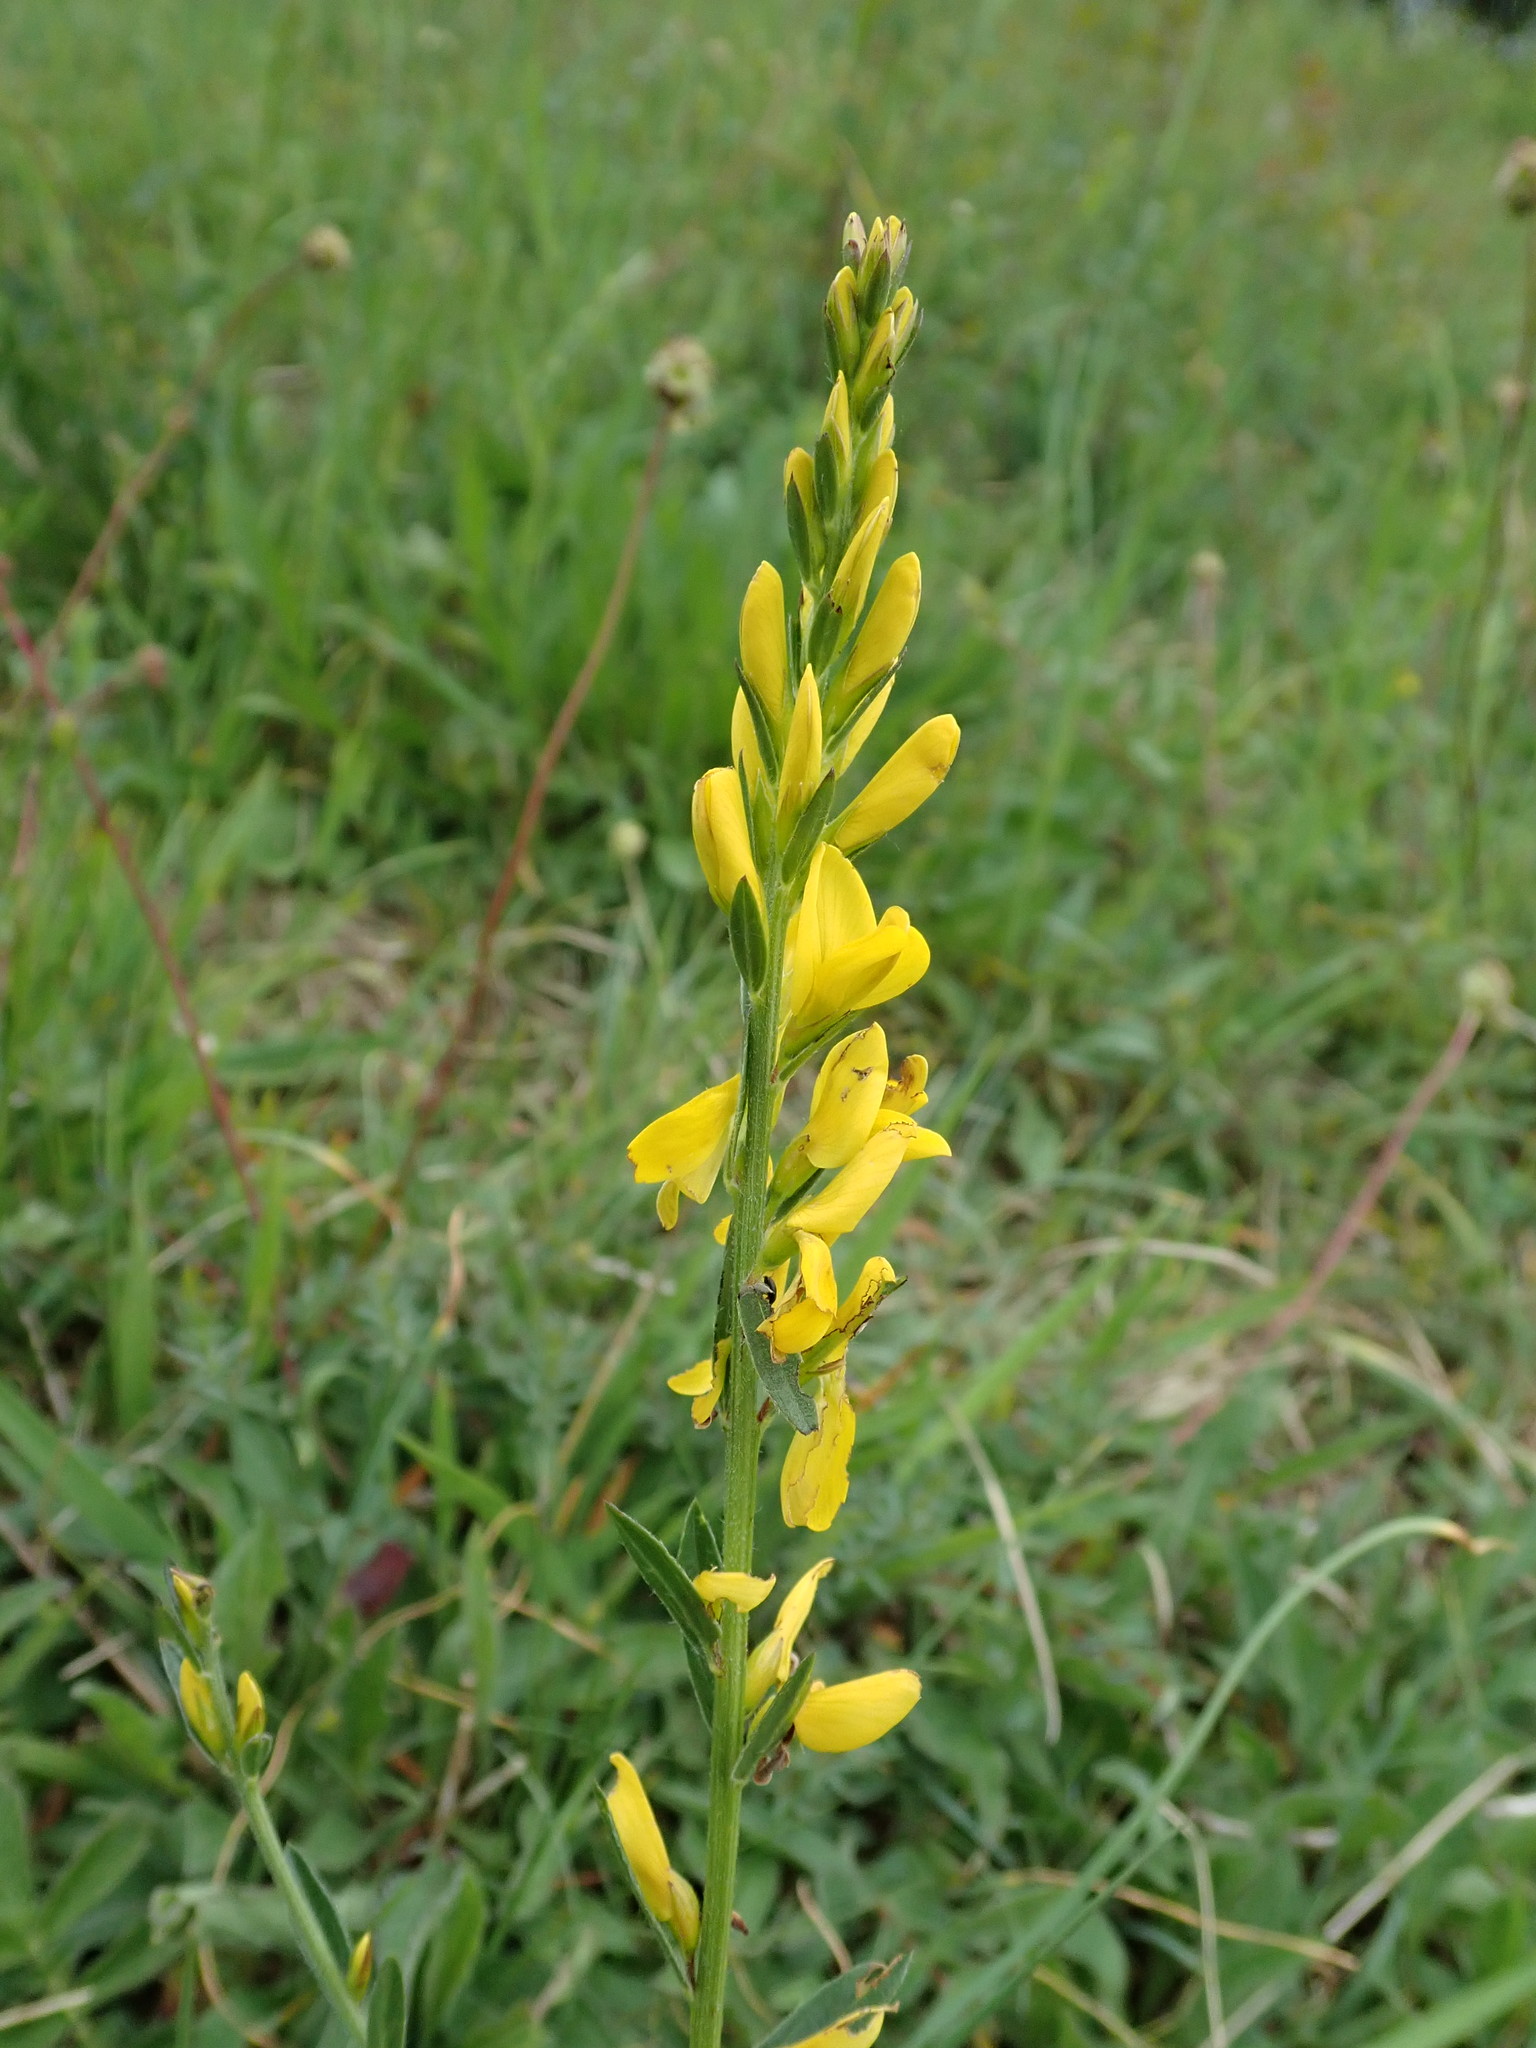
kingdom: Plantae
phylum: Tracheophyta
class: Magnoliopsida
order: Fabales
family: Fabaceae
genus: Genista
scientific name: Genista tinctoria
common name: Dyer's greenweed
